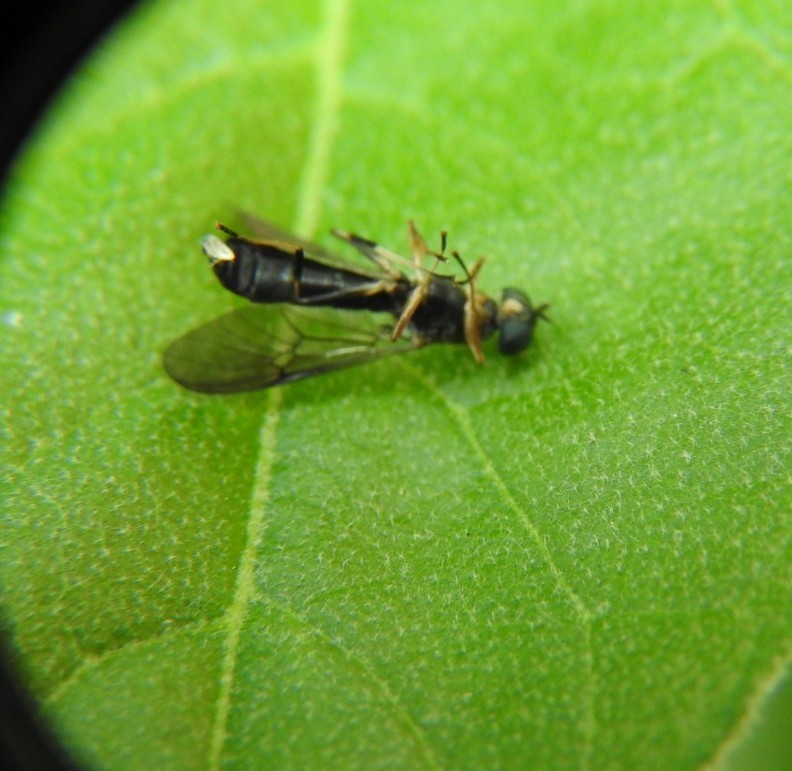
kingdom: Animalia
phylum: Arthropoda
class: Insecta
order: Diptera
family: Stratiomyidae
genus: Merosargus
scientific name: Merosargus stamineus
